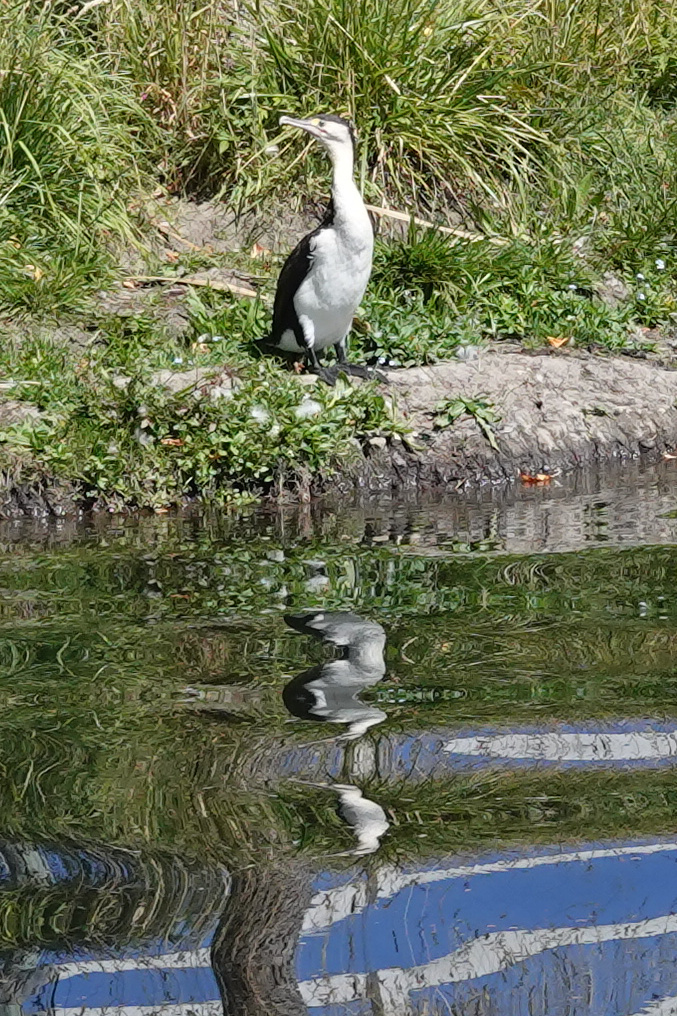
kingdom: Animalia
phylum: Chordata
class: Aves
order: Suliformes
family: Phalacrocoracidae
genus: Phalacrocorax
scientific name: Phalacrocorax varius
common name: Pied cormorant
